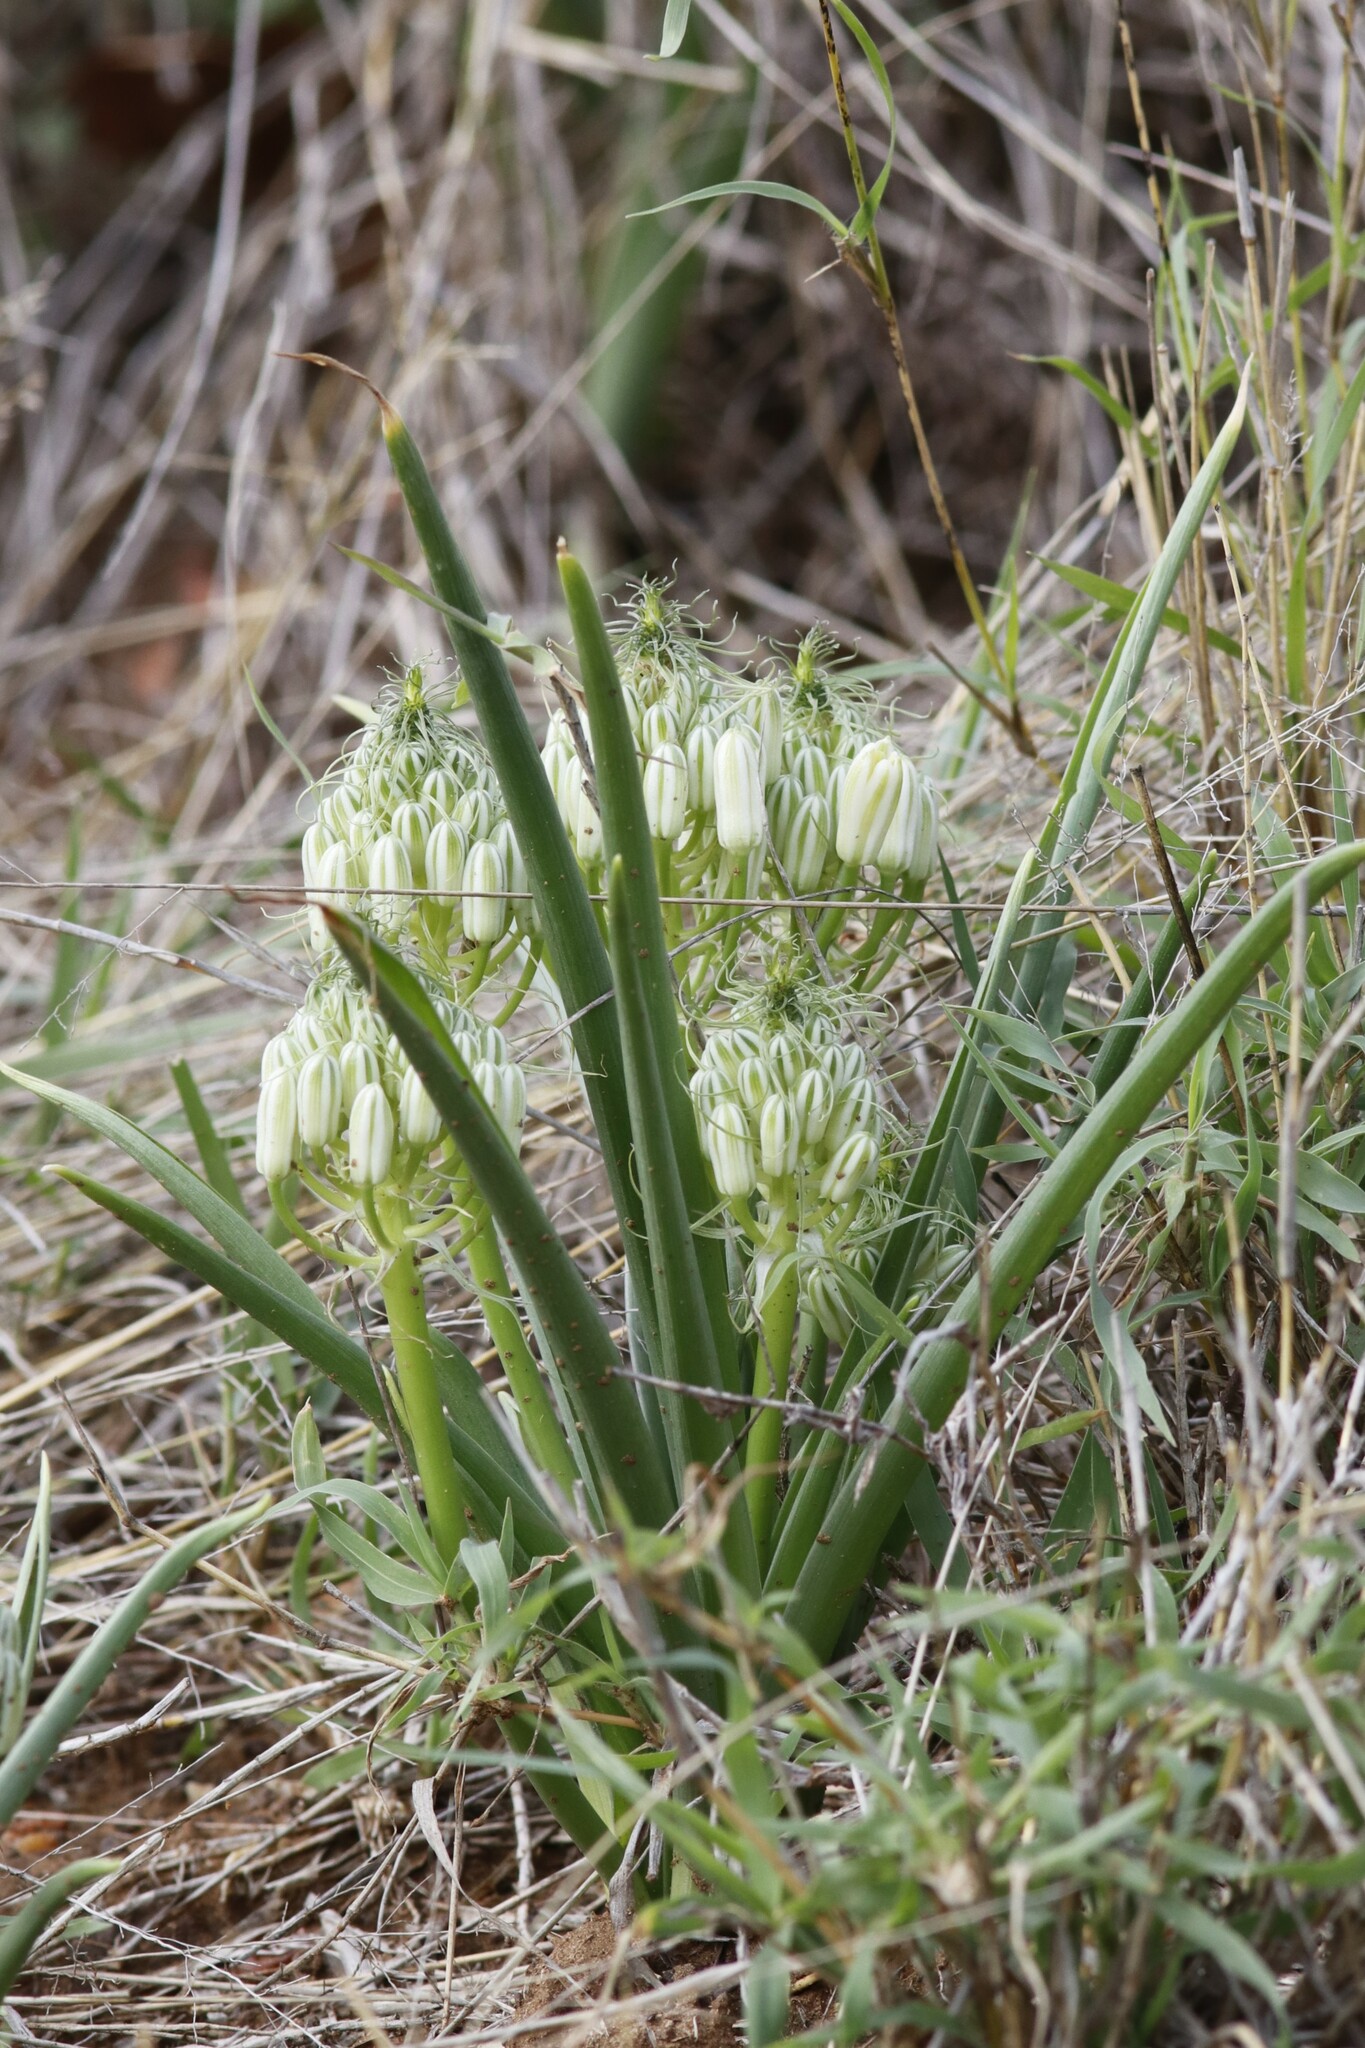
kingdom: Plantae
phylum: Tracheophyta
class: Liliopsida
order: Asparagales
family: Asparagaceae
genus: Albuca
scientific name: Albuca seineri
